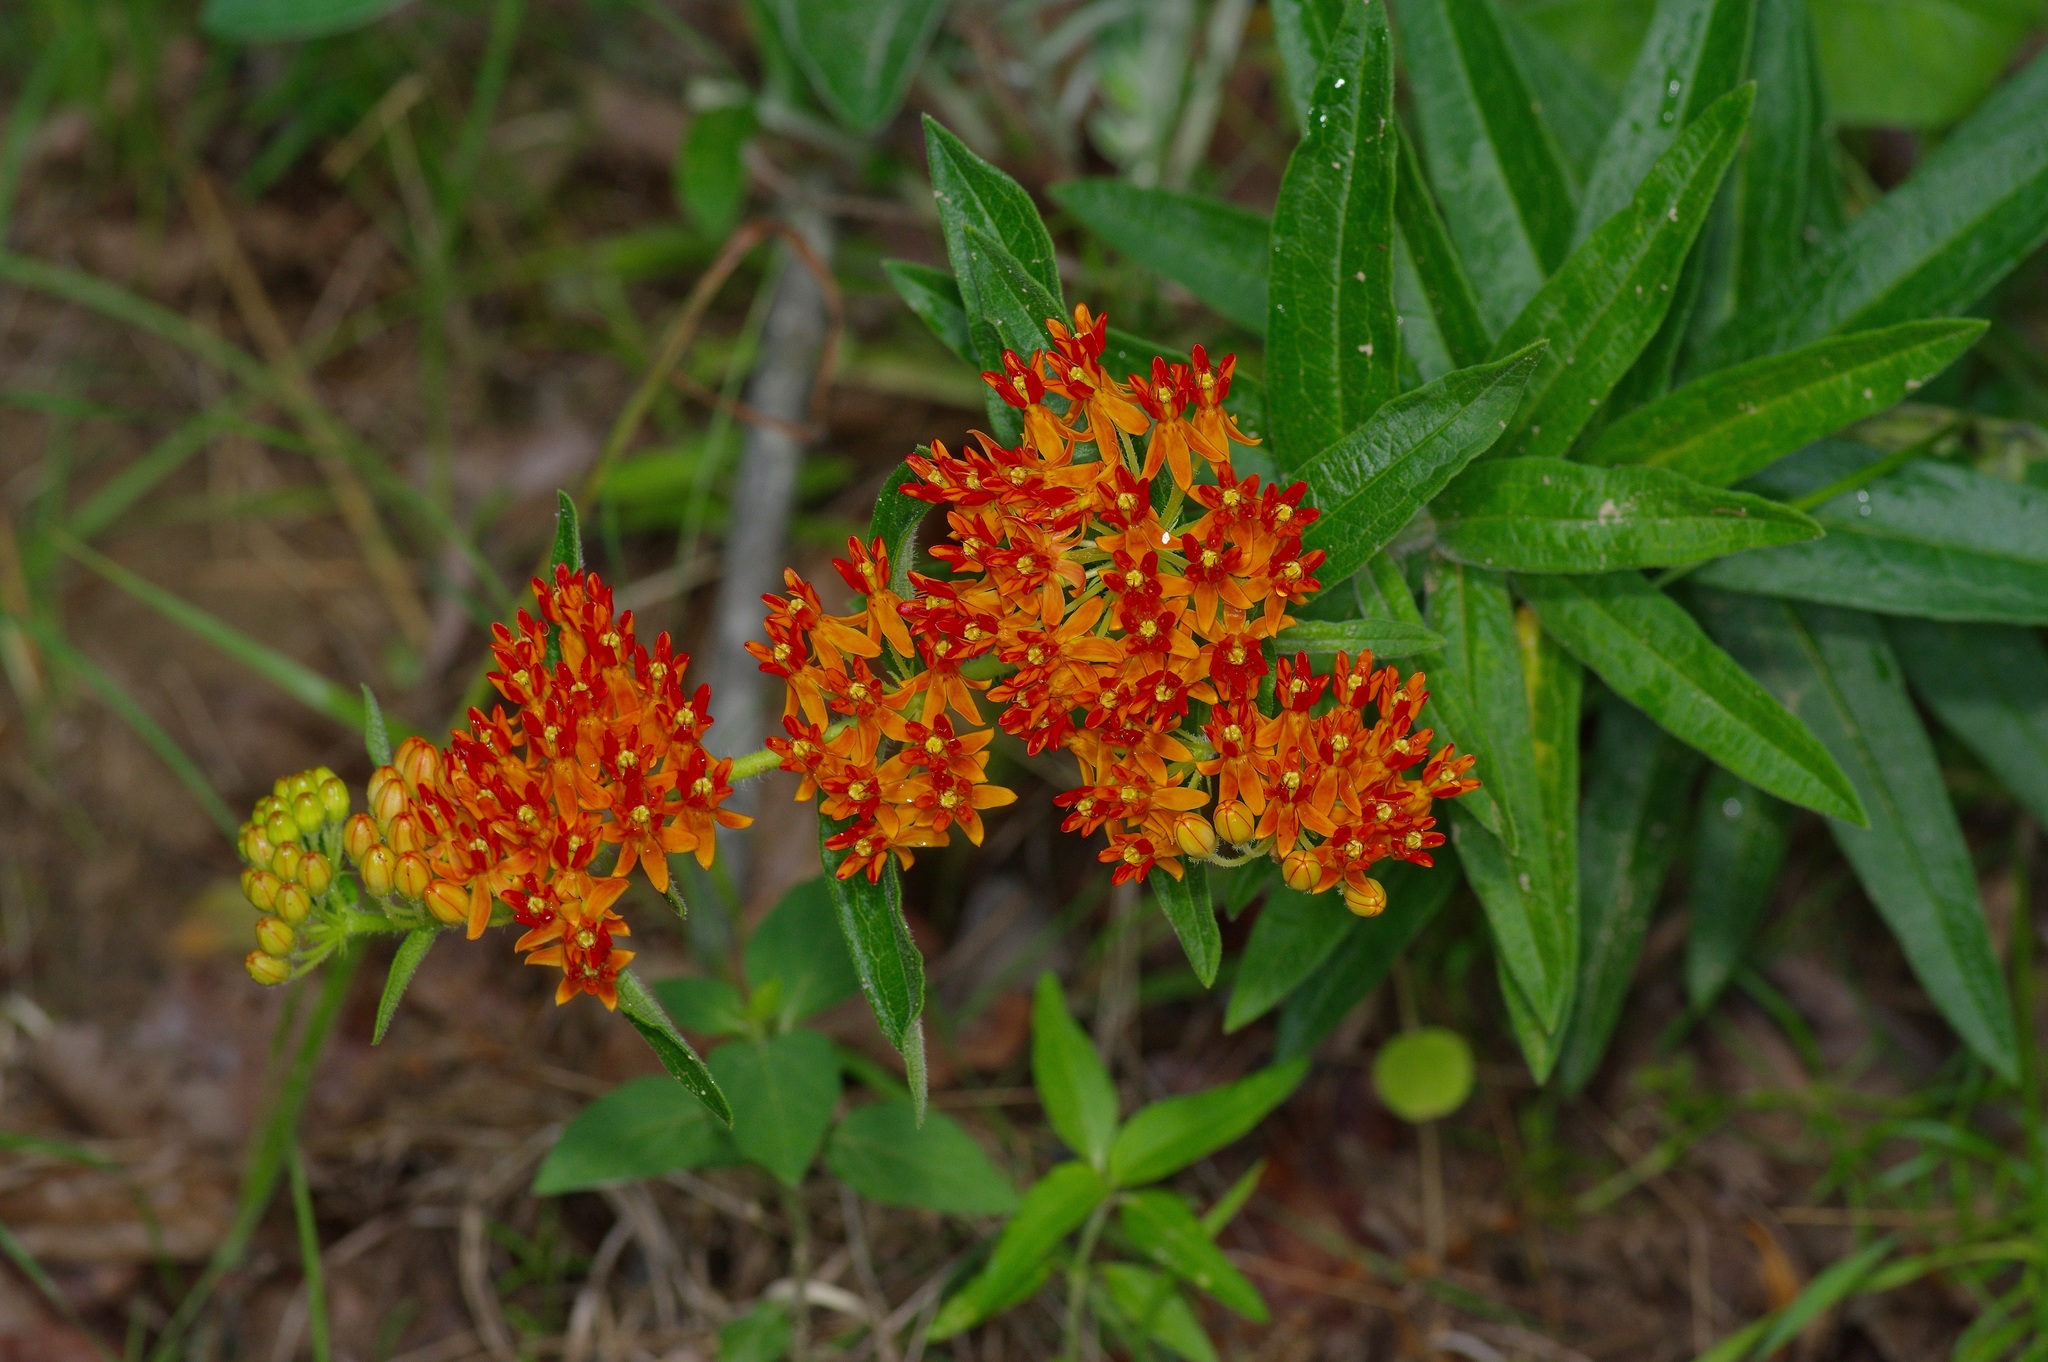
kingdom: Plantae
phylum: Tracheophyta
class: Magnoliopsida
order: Gentianales
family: Apocynaceae
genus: Asclepias
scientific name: Asclepias tuberosa
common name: Butterfly milkweed
